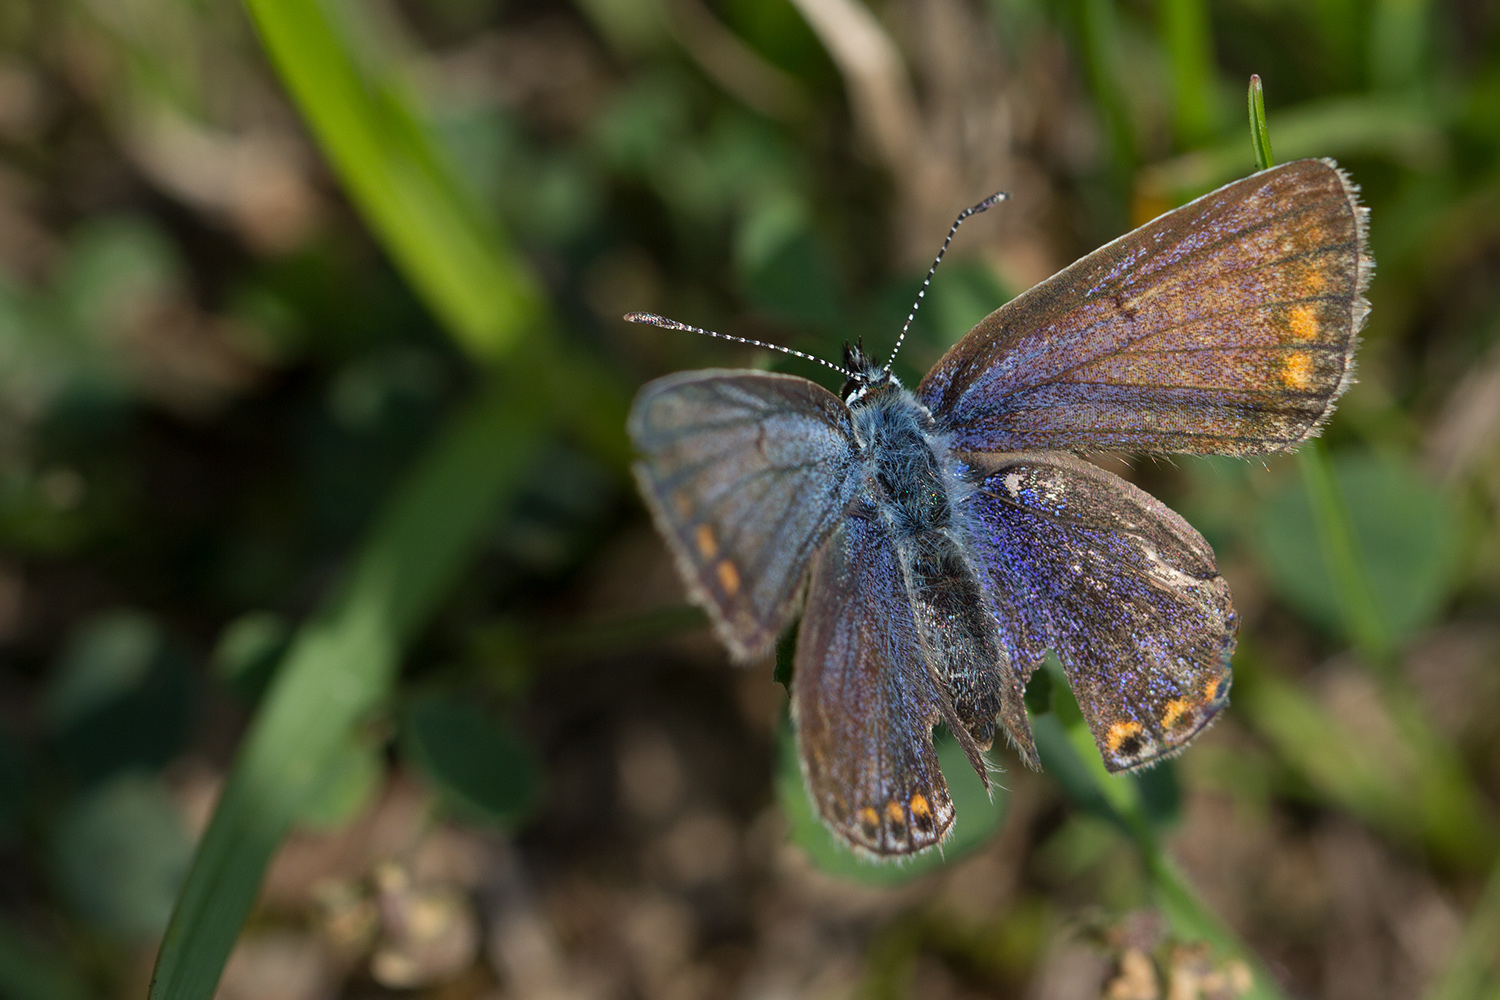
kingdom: Animalia
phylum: Arthropoda
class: Insecta
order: Lepidoptera
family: Lycaenidae
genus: Polyommatus
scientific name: Polyommatus icarus
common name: Common blue
